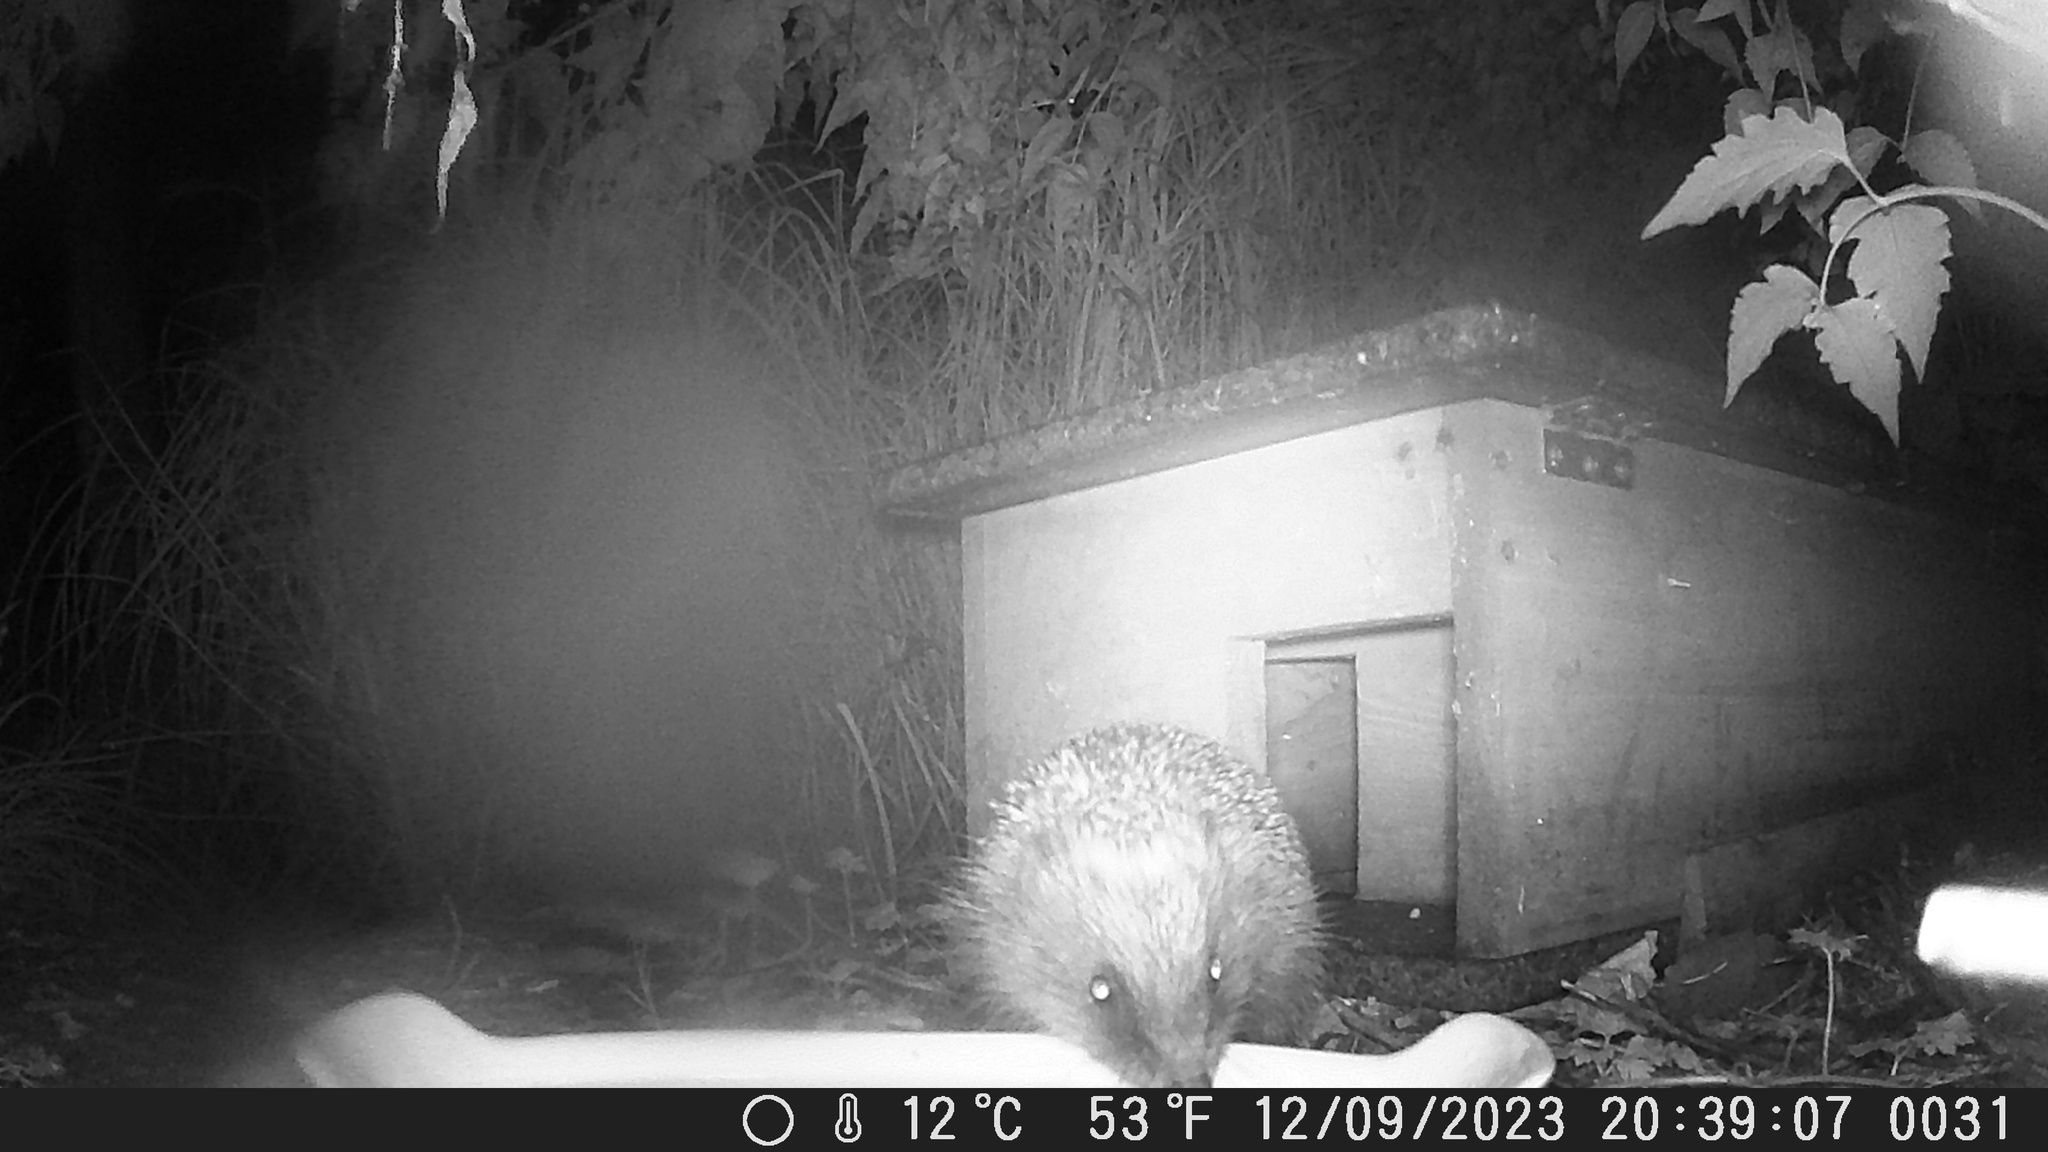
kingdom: Animalia
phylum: Chordata
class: Mammalia
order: Erinaceomorpha
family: Erinaceidae
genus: Erinaceus
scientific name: Erinaceus europaeus
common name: West european hedgehog
